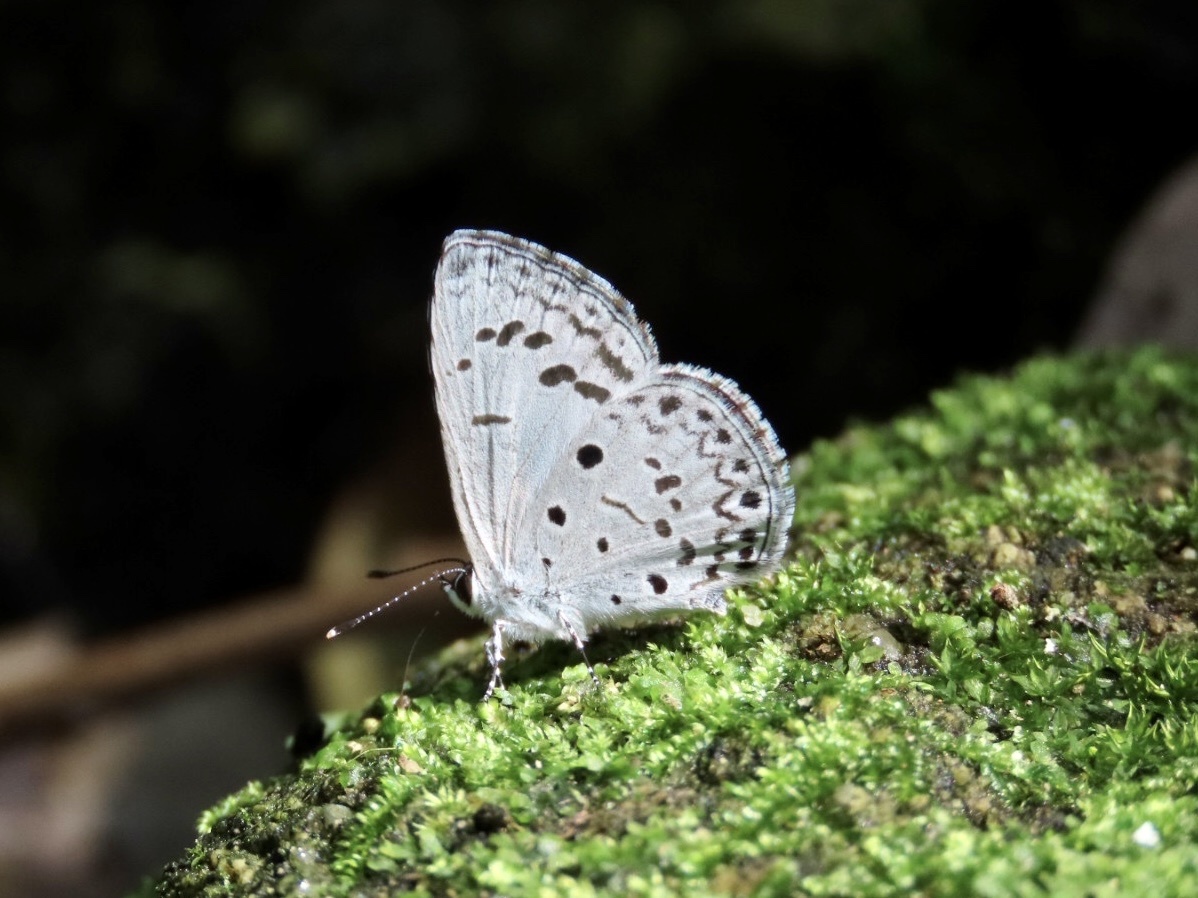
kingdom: Animalia
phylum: Arthropoda
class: Insecta
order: Lepidoptera
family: Lycaenidae
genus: Acytolepis
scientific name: Acytolepis puspa
